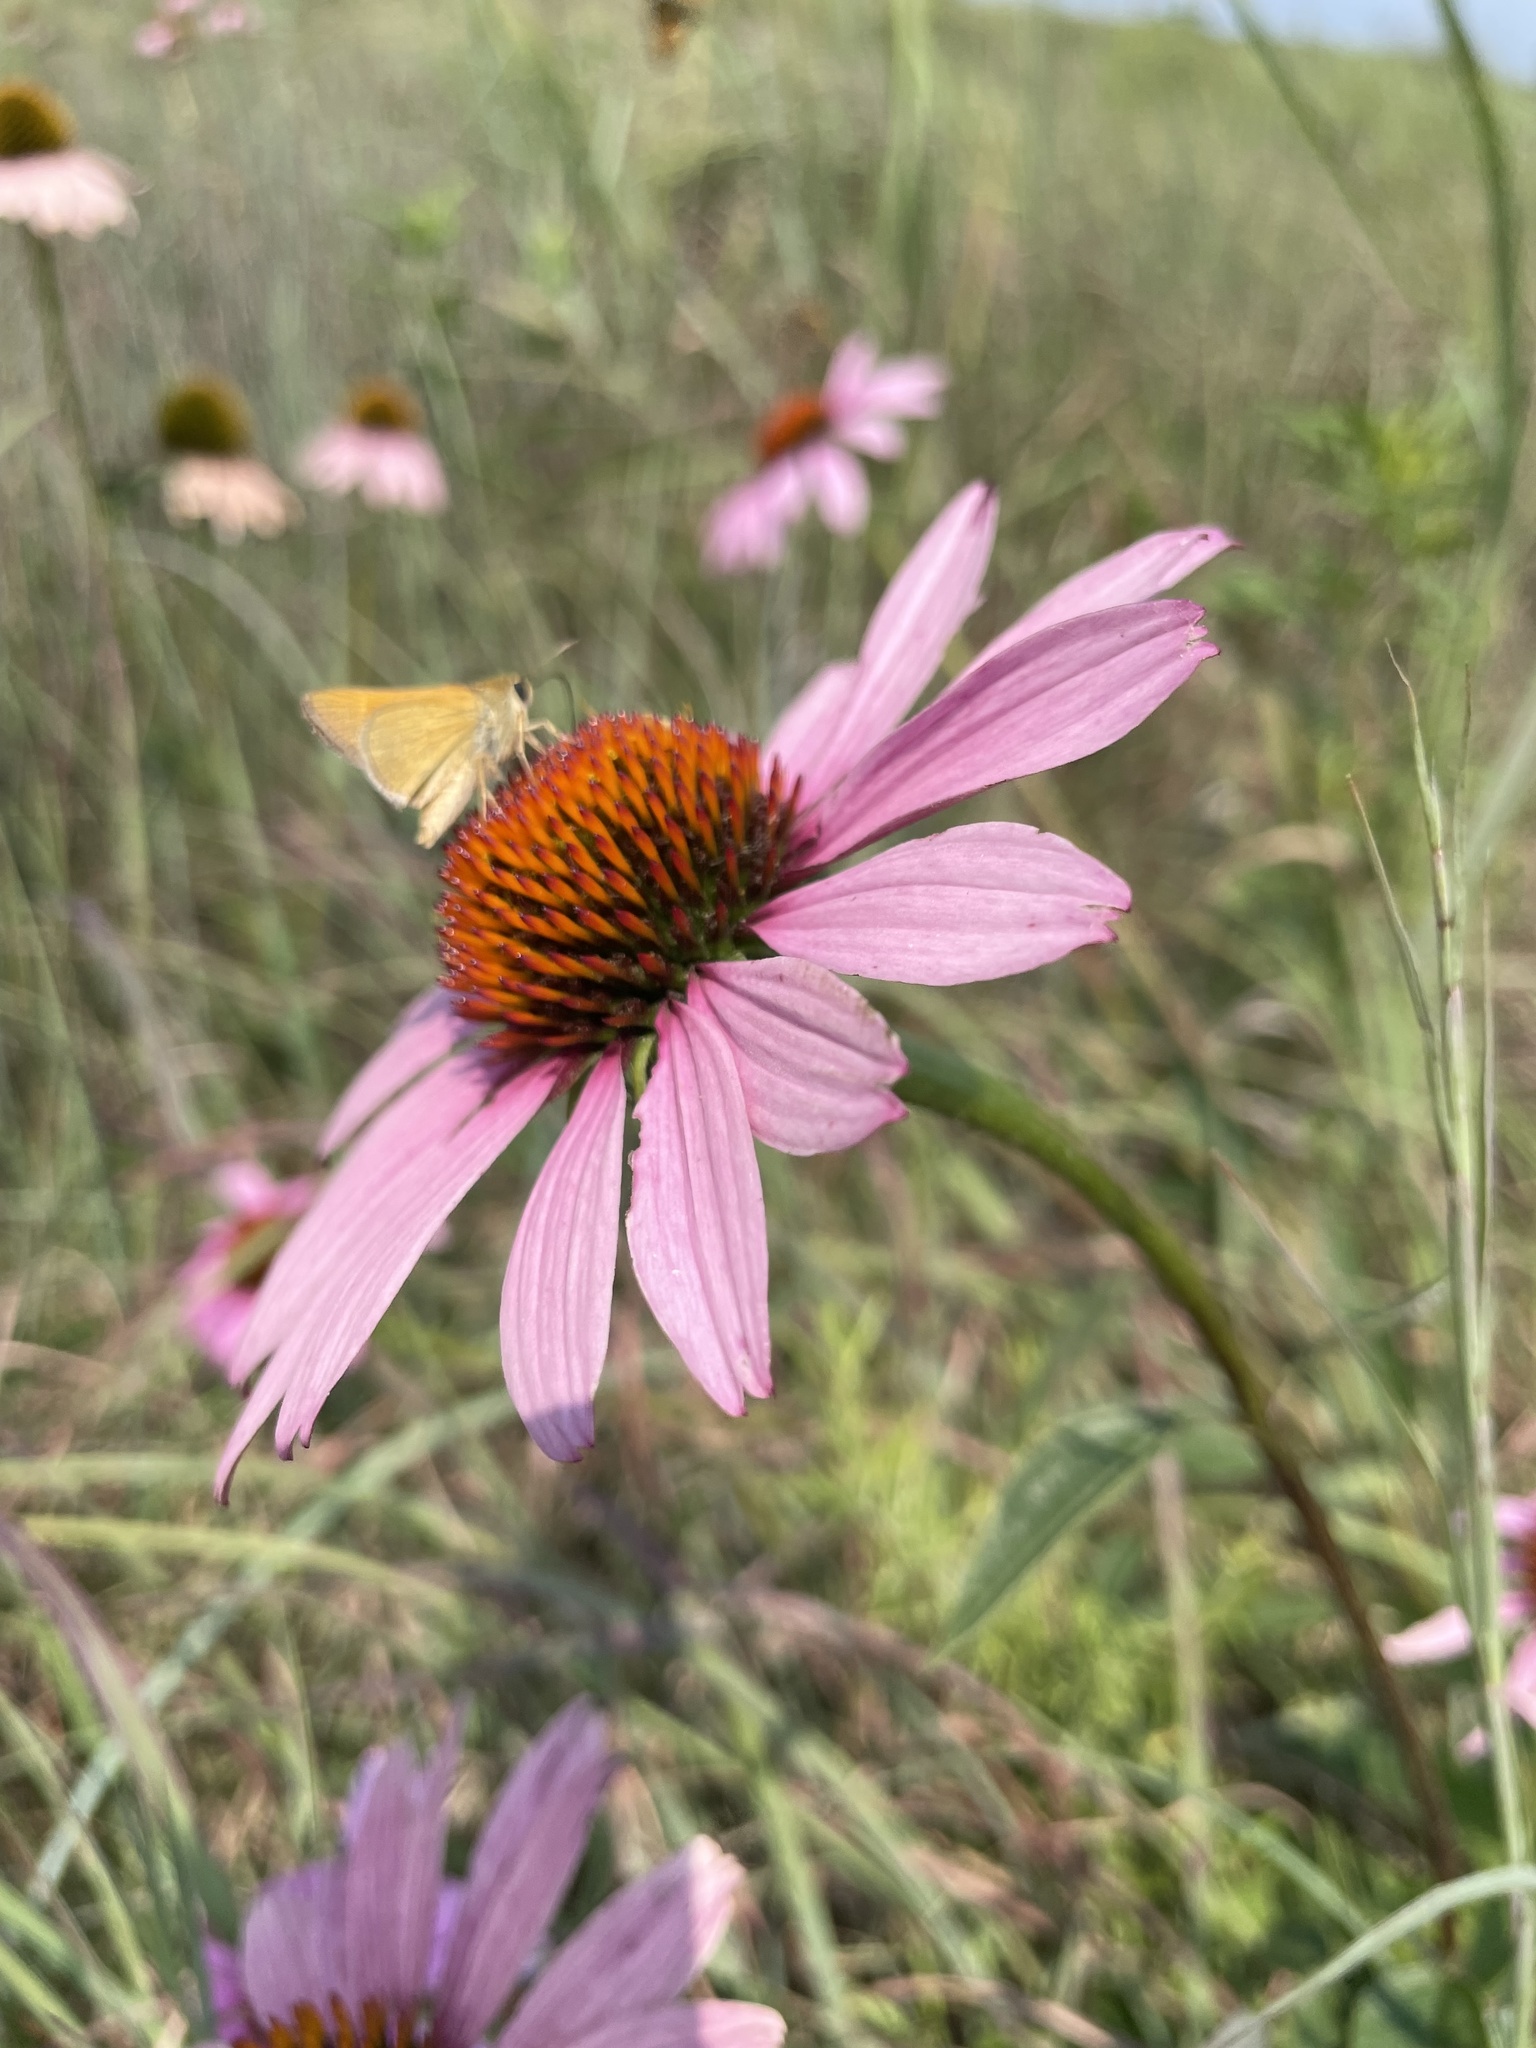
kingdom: Animalia
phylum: Arthropoda
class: Insecta
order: Lepidoptera
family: Hesperiidae
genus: Polites
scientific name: Polites themistocles
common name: Tawny-edged skipper
